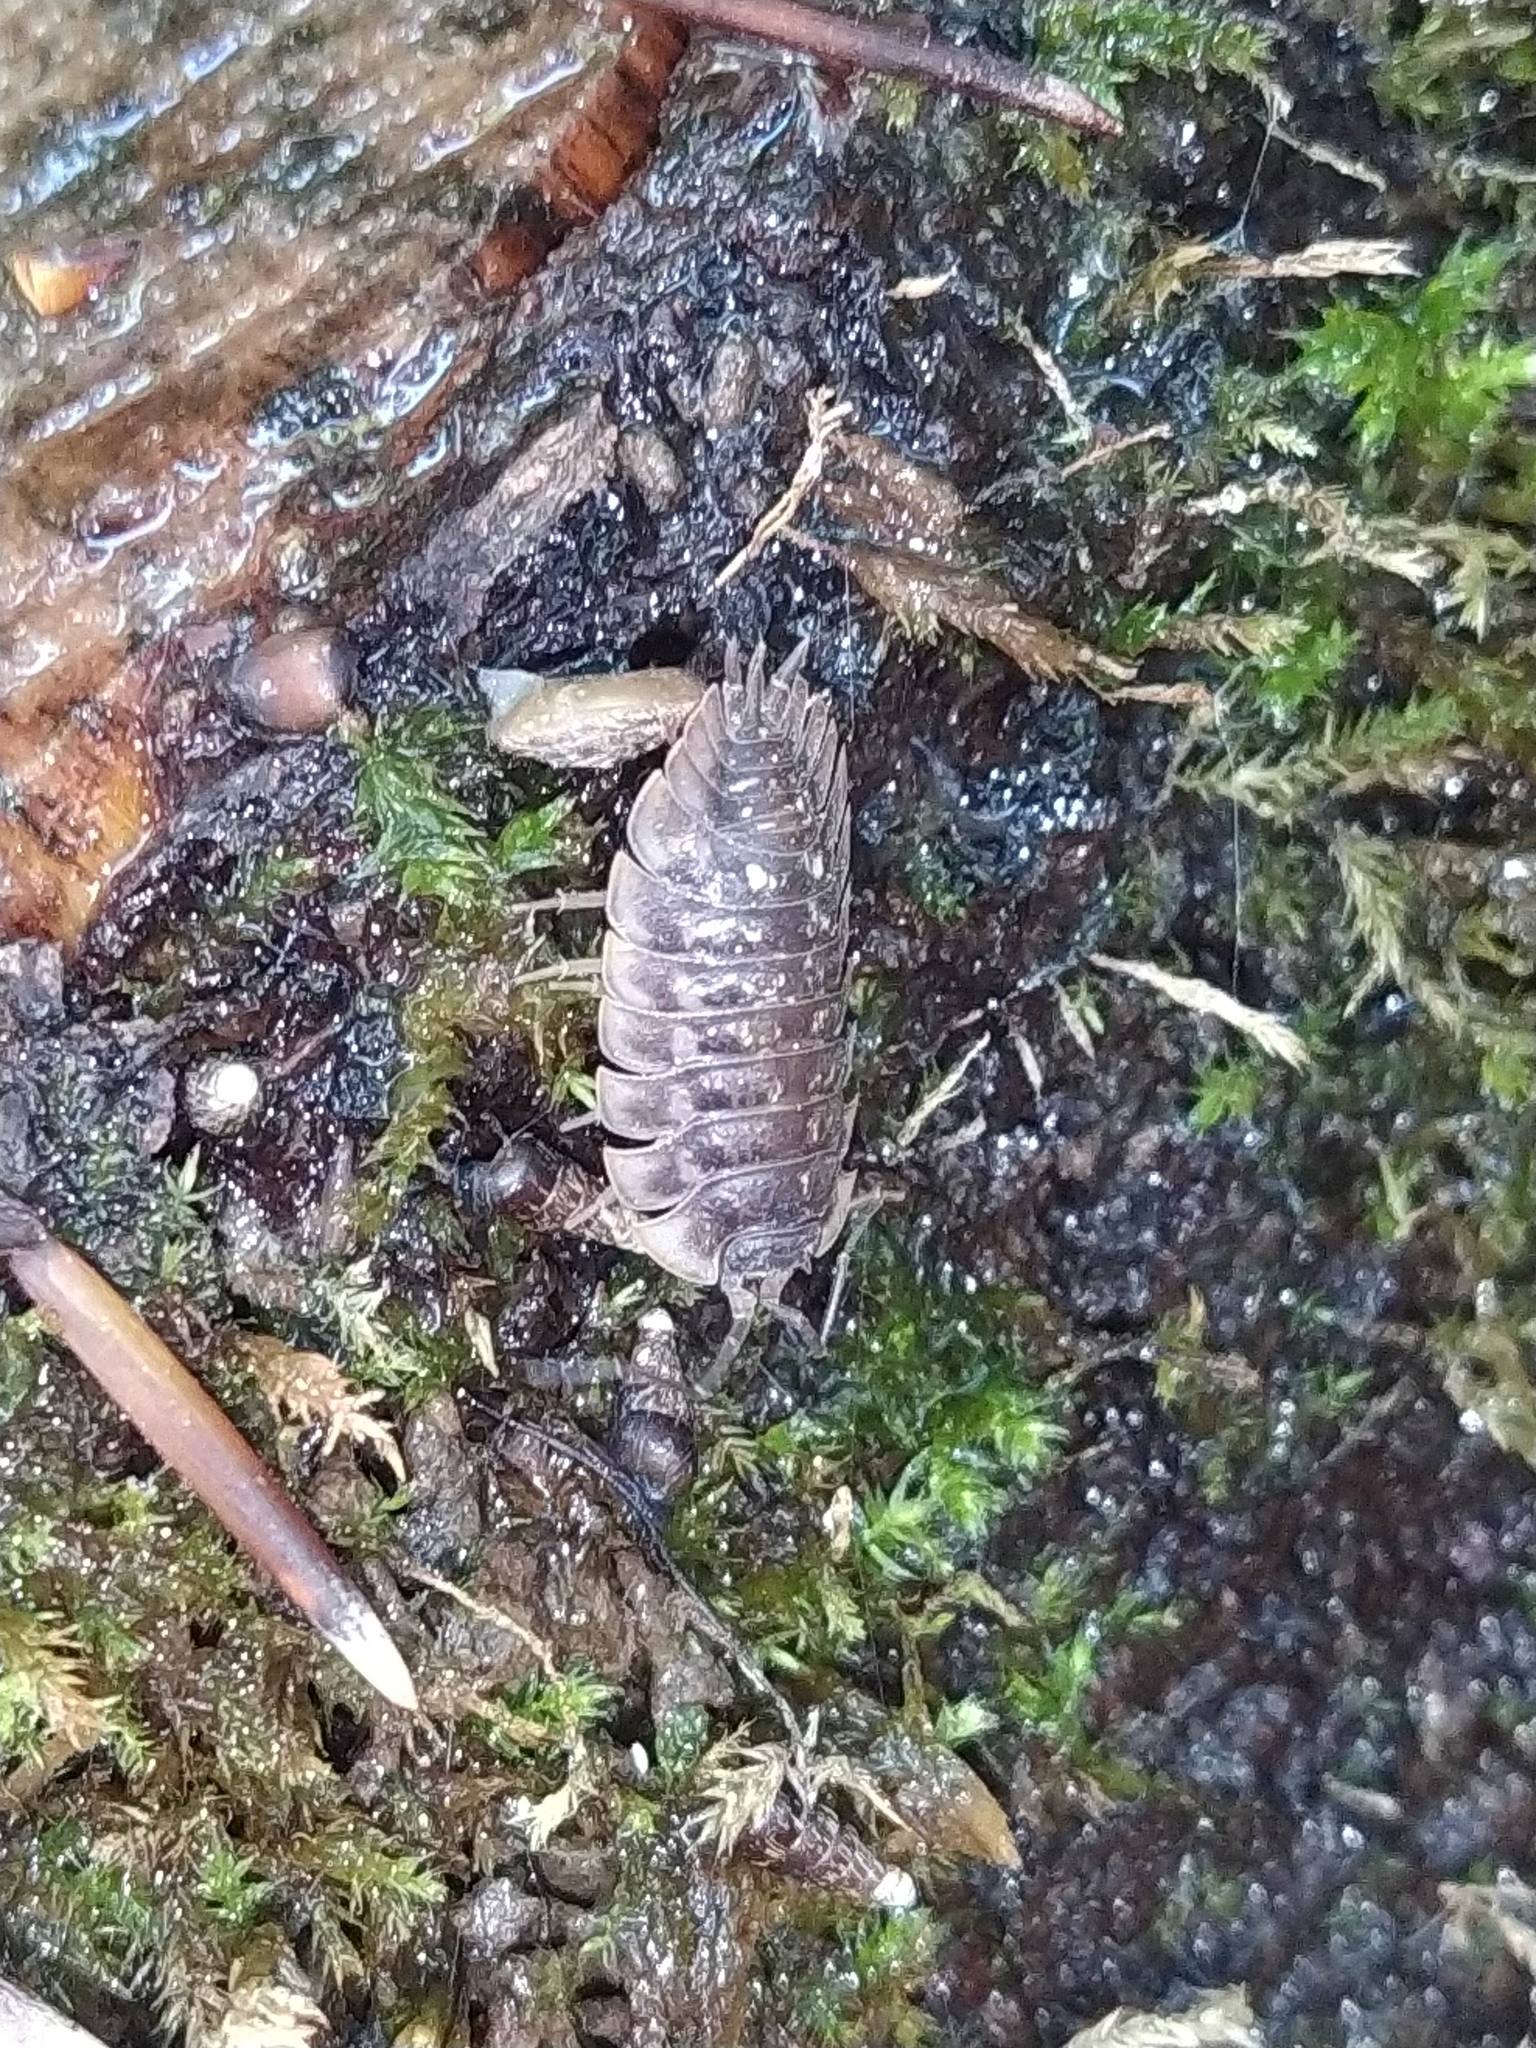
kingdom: Animalia
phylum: Arthropoda
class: Malacostraca
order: Isopoda
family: Oniscidae
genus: Oniscus
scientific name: Oniscus asellus
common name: Common shiny woodlouse
